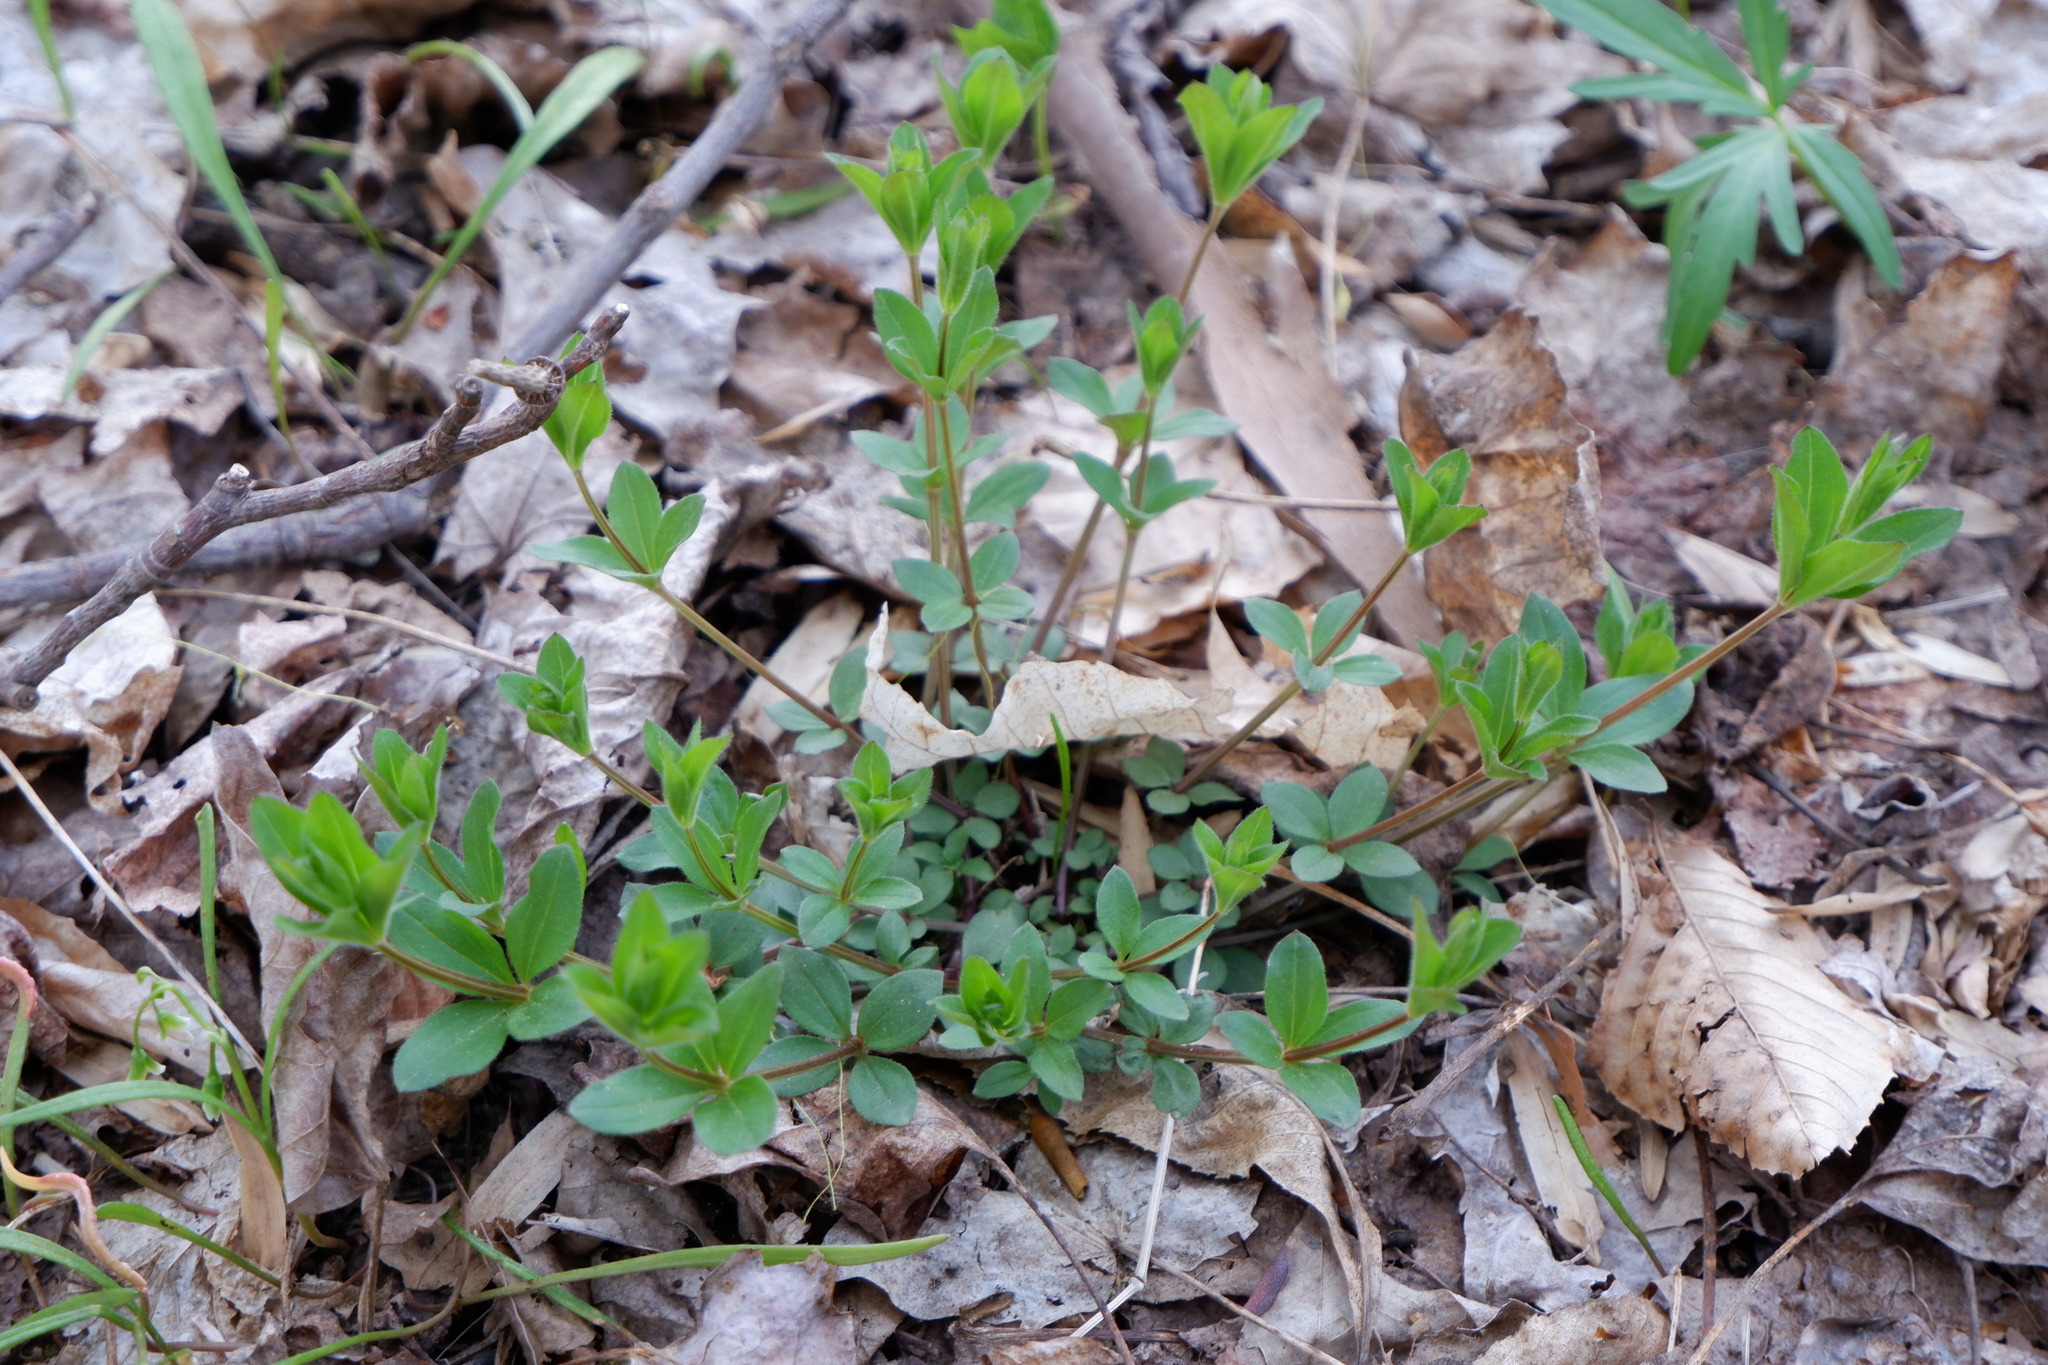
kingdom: Plantae
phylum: Tracheophyta
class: Magnoliopsida
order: Gentianales
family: Rubiaceae
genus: Galium
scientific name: Galium circaezans
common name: Forest bedstraw
